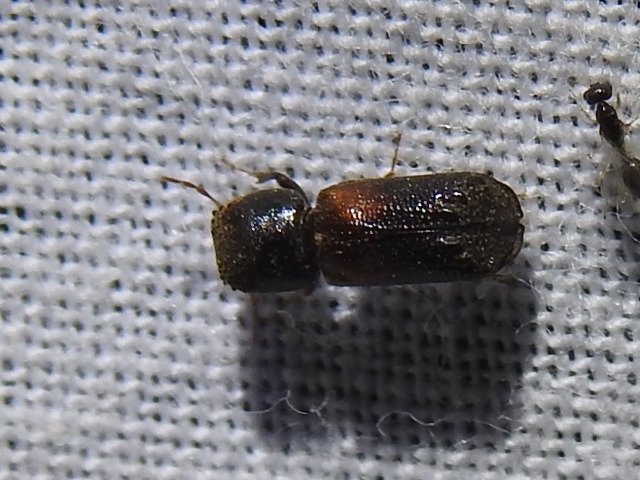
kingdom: Animalia
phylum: Arthropoda
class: Insecta
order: Coleoptera
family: Bostrichidae
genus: Xylobiops
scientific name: Xylobiops basilaris
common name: Red-shouldered bostrichid
